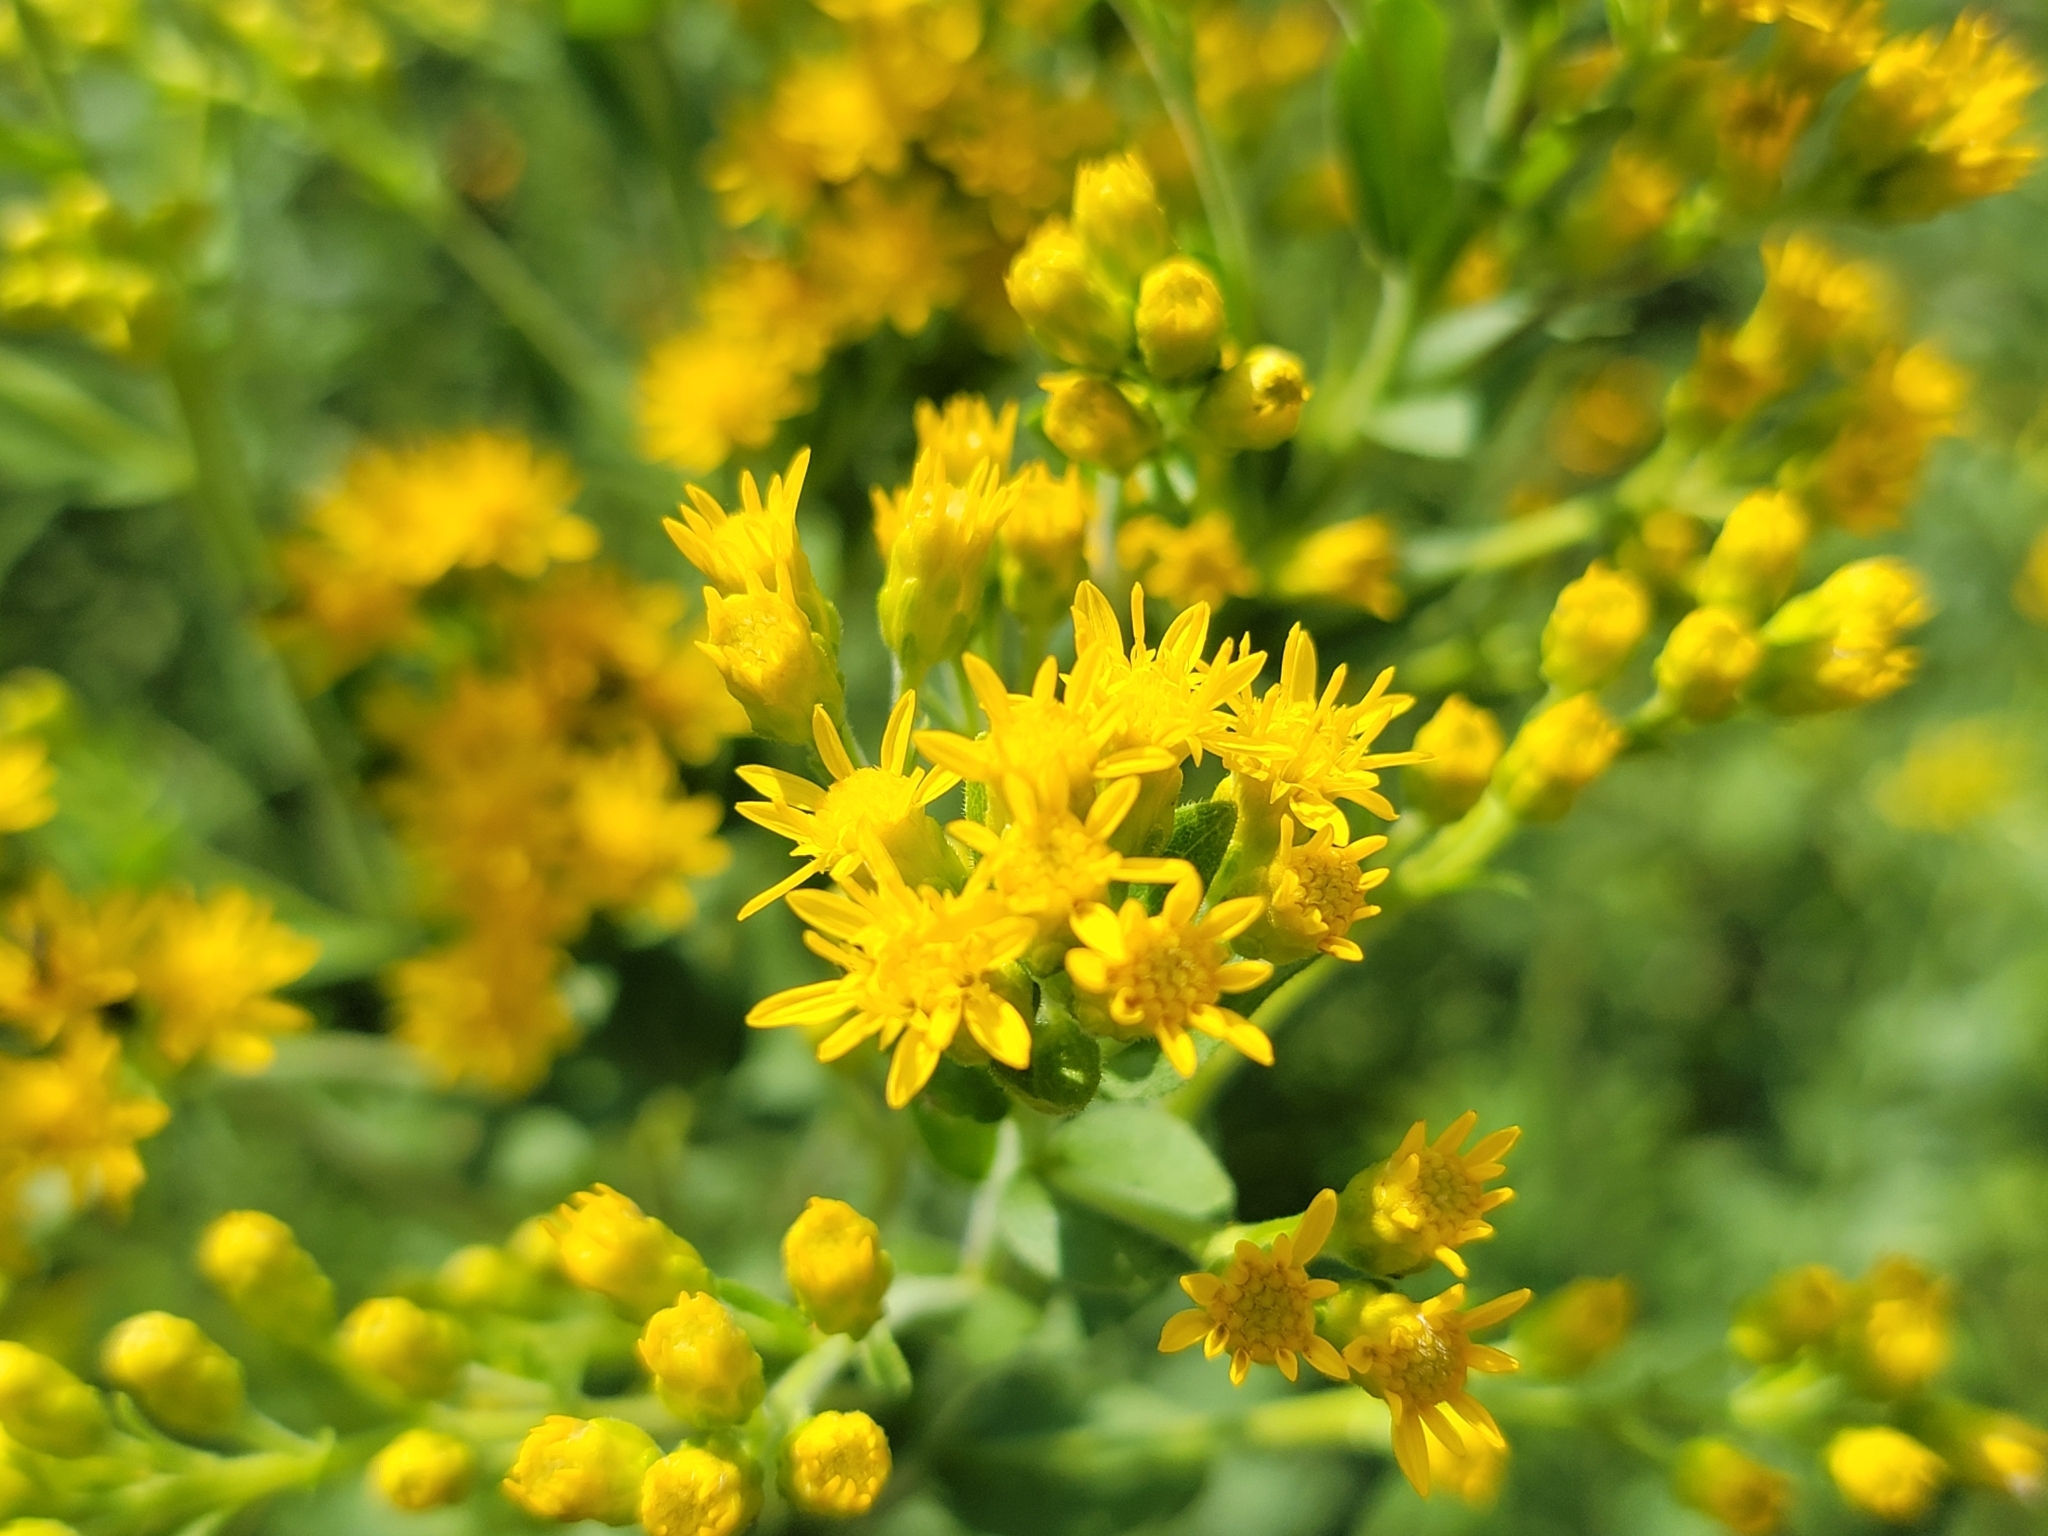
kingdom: Plantae
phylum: Tracheophyta
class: Magnoliopsida
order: Asterales
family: Asteraceae
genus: Solidago
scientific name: Solidago rigida
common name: Rigid goldenrod
